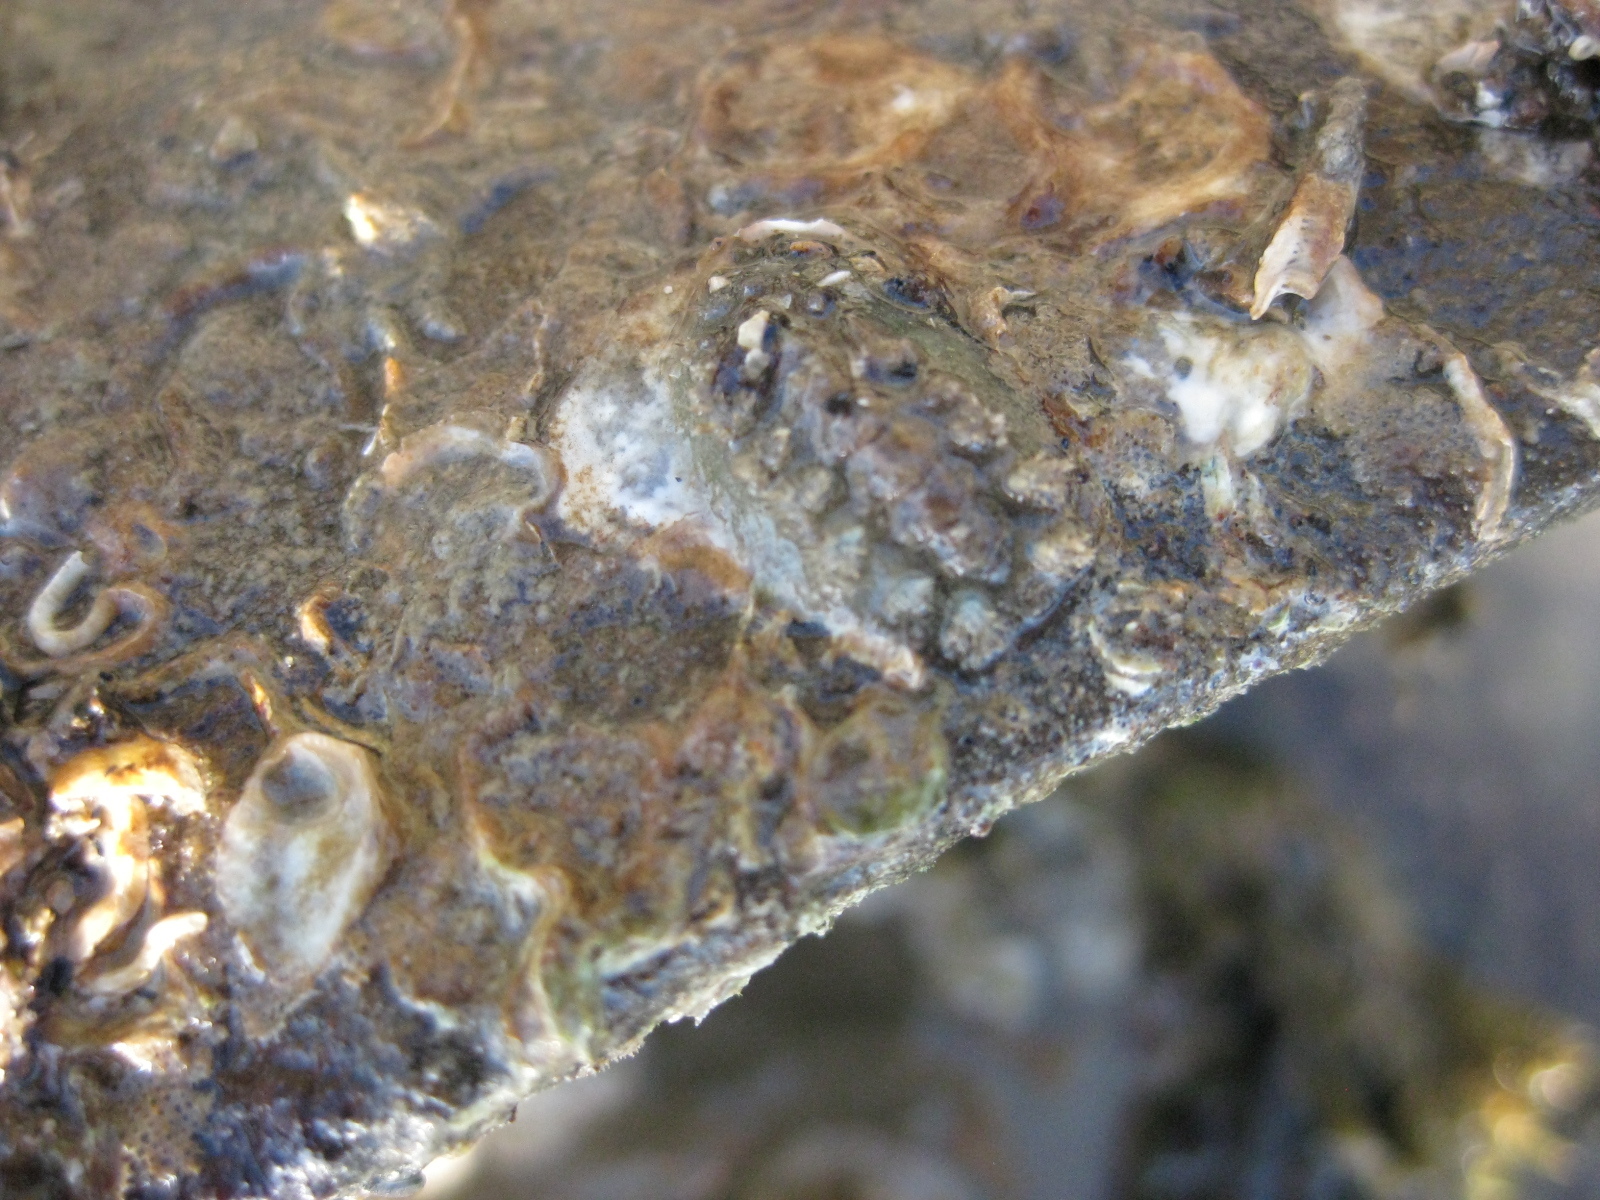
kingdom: Animalia
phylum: Mollusca
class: Polyplacophora
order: Chitonida
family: Acanthochitonidae
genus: Acanthochitona
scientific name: Acanthochitona zelandica
